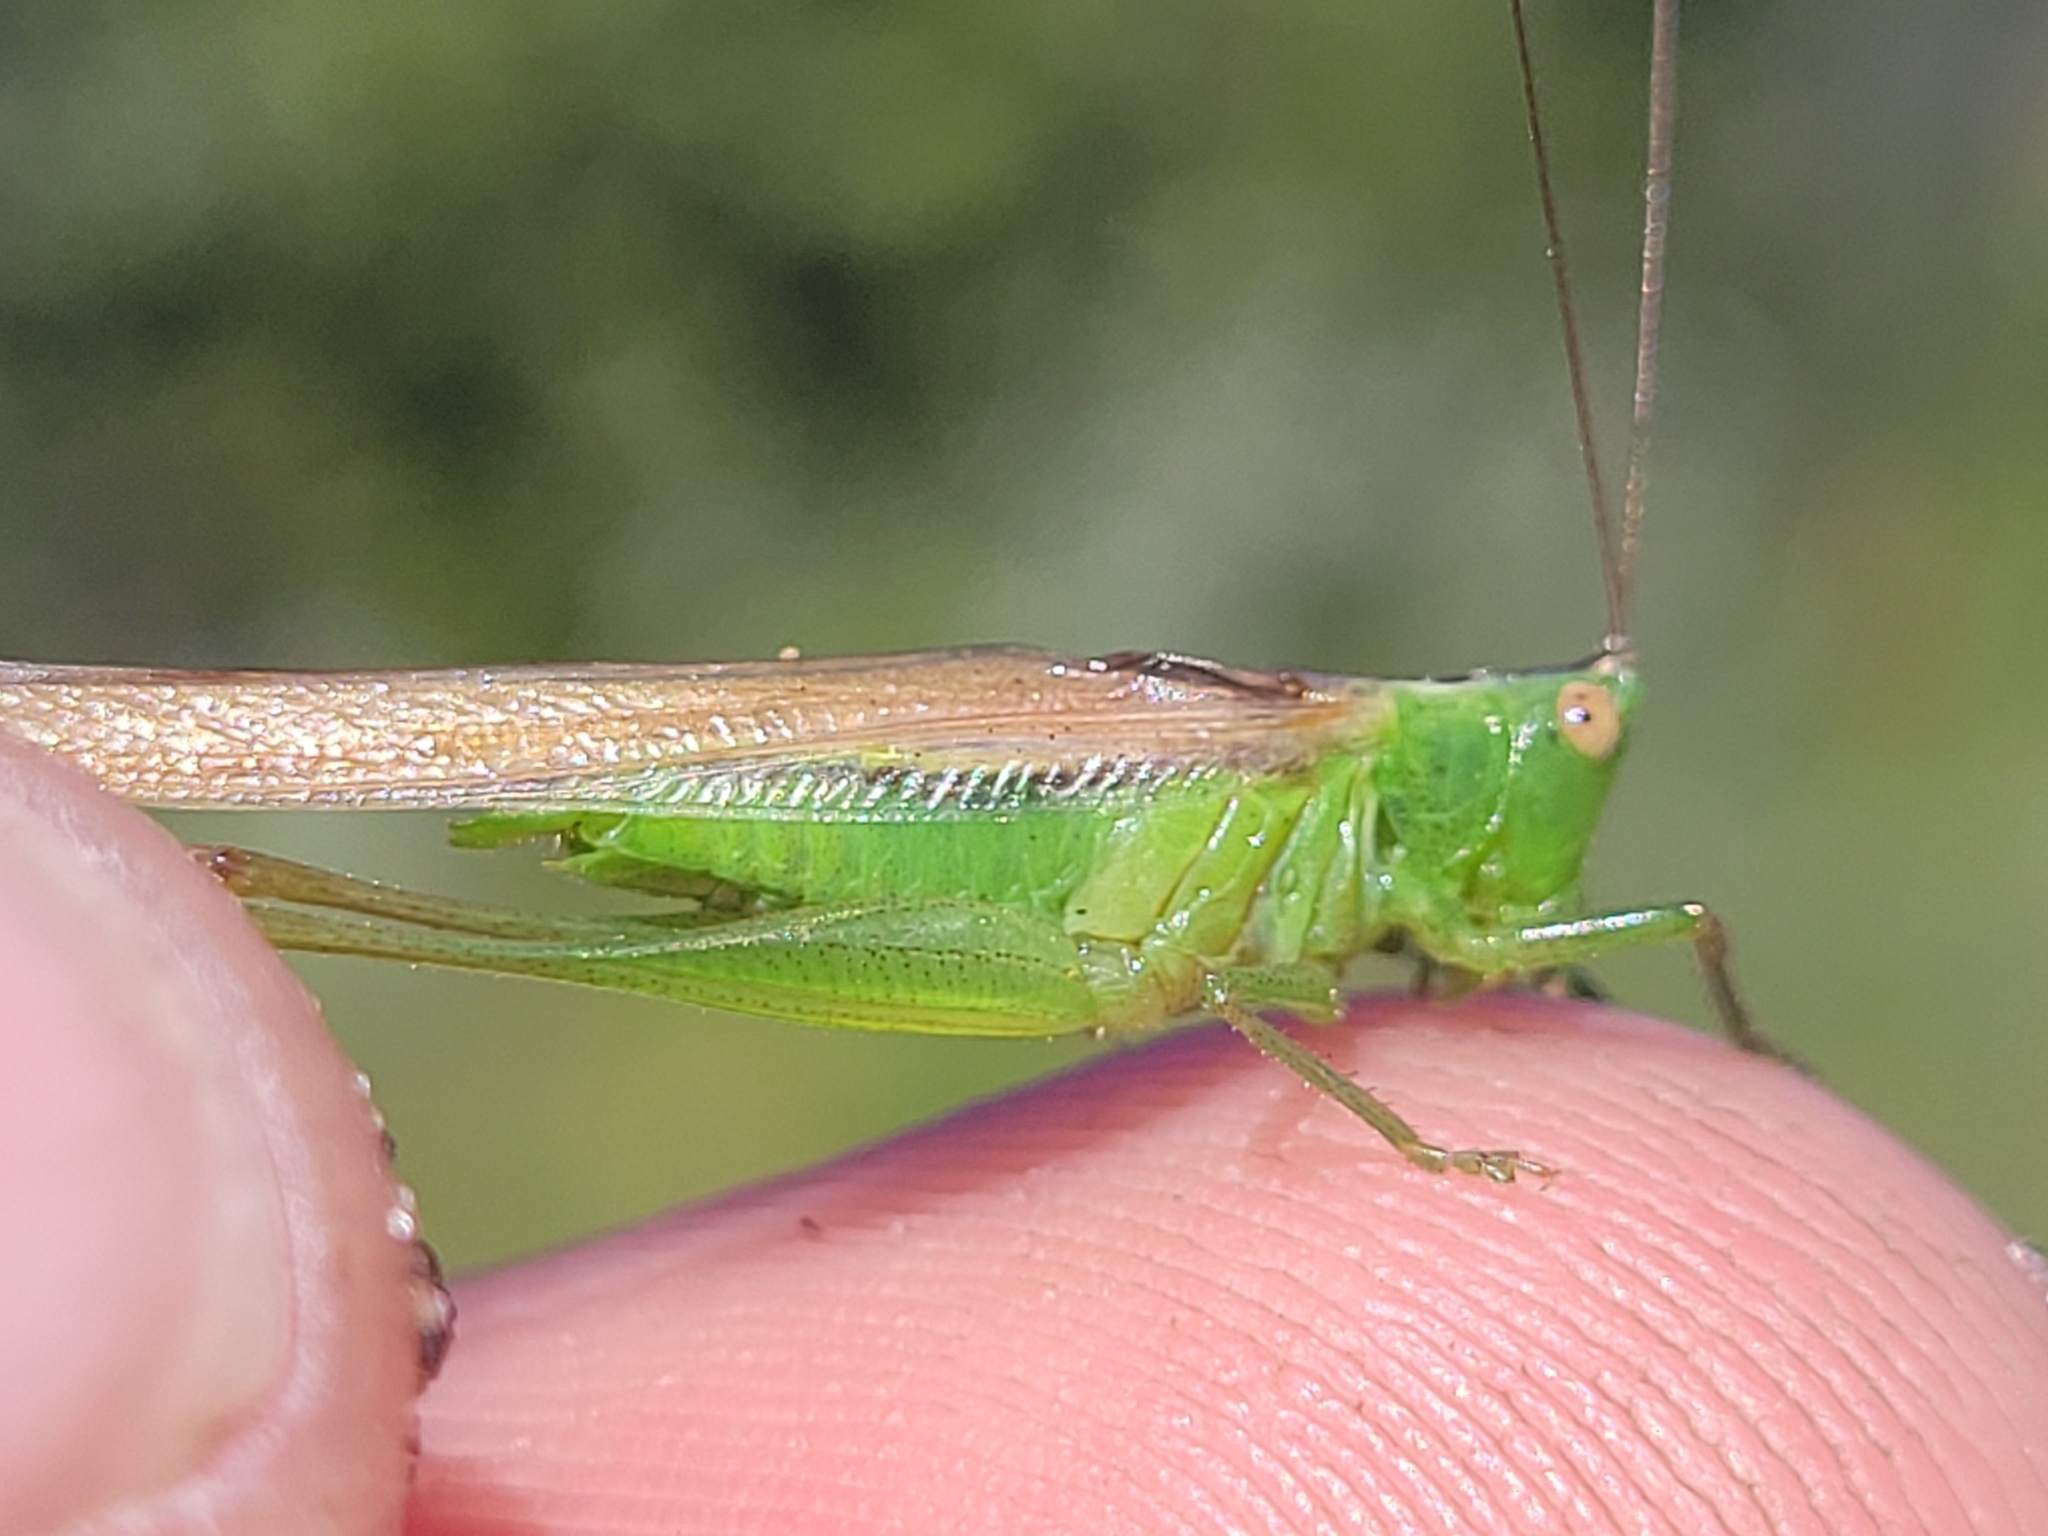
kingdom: Animalia
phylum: Arthropoda
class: Insecta
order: Orthoptera
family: Tettigoniidae
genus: Conocephalus
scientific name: Conocephalus fasciatus
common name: Slender meadow katydid
